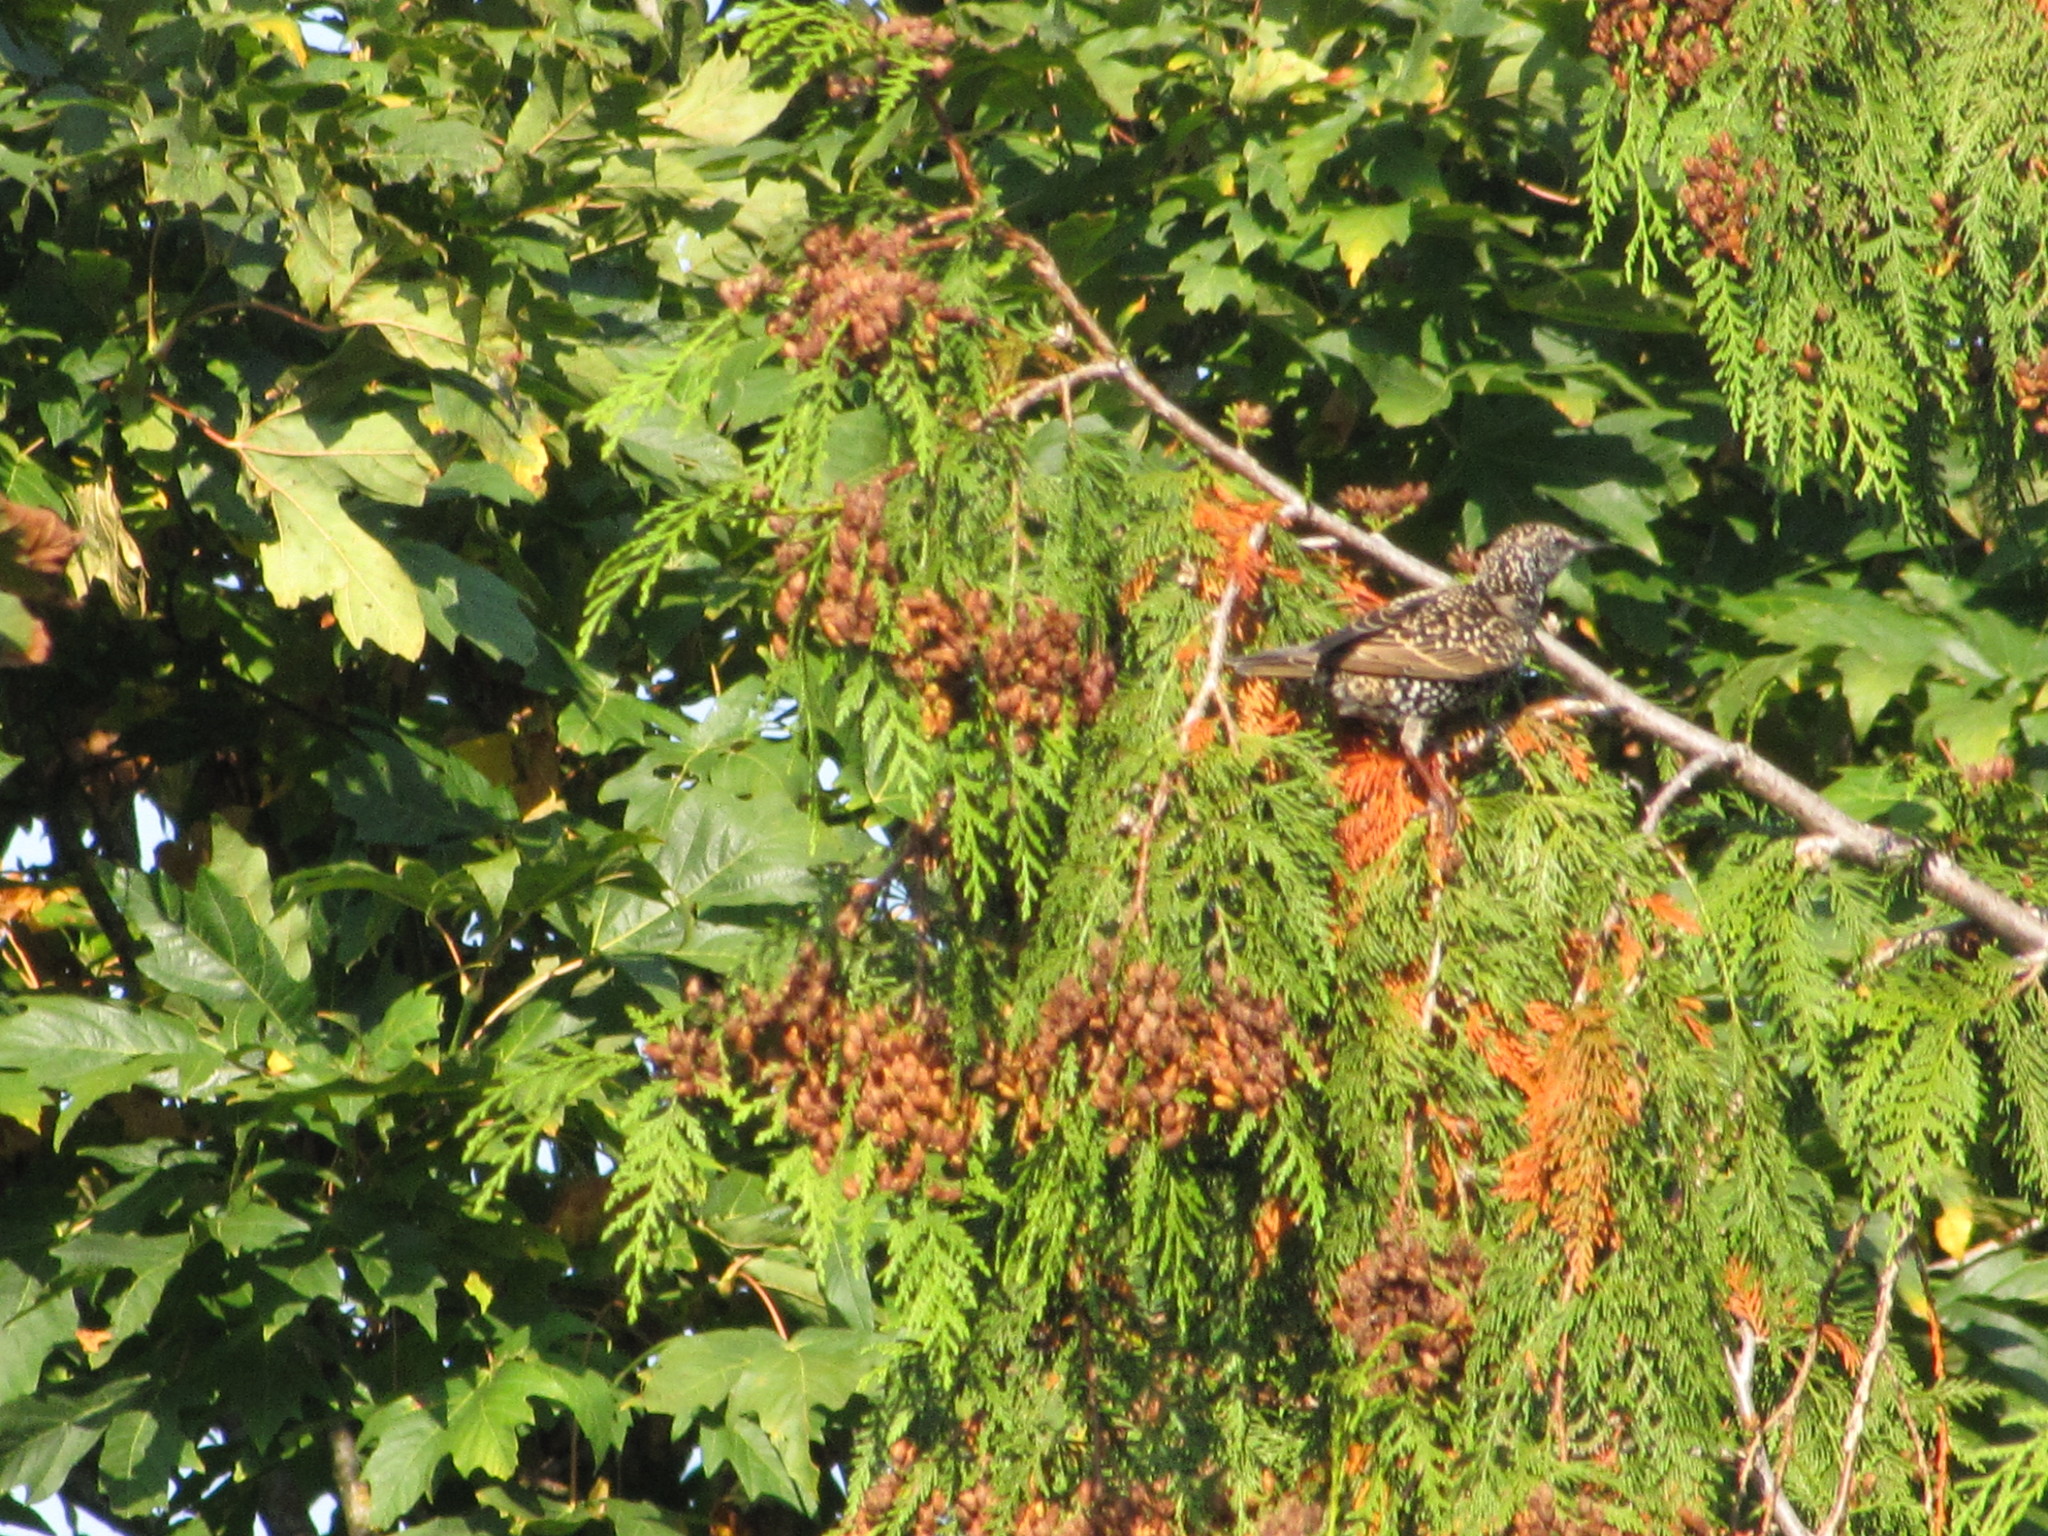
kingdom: Animalia
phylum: Chordata
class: Aves
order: Passeriformes
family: Sturnidae
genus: Sturnus
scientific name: Sturnus vulgaris
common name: Common starling
